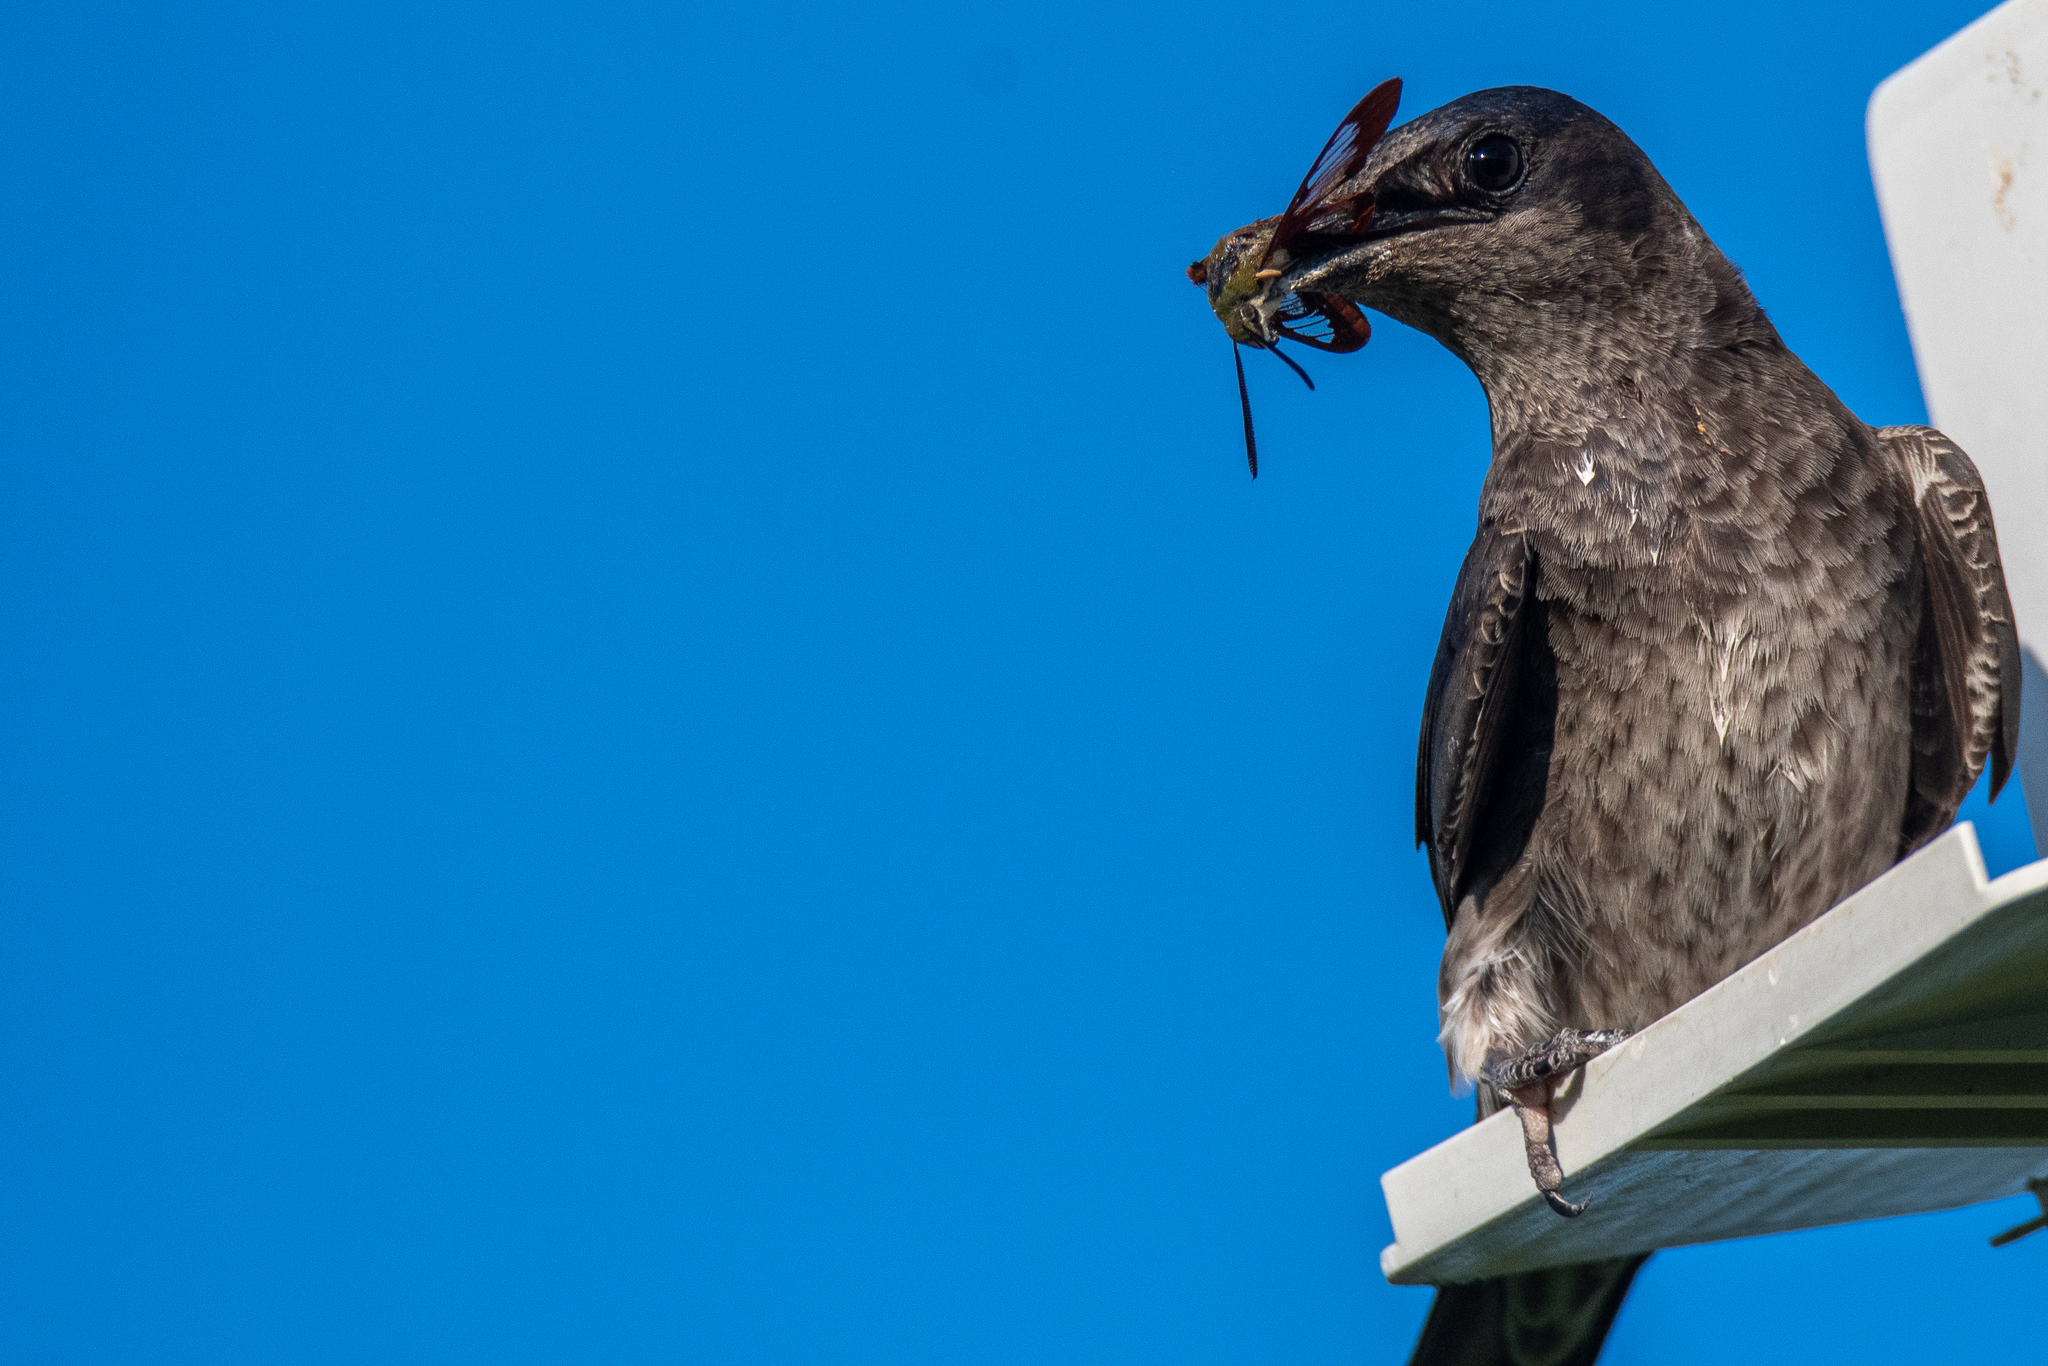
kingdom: Animalia
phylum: Arthropoda
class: Insecta
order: Lepidoptera
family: Sphingidae
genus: Hemaris
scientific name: Hemaris thysbe
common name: Common clear-wing
